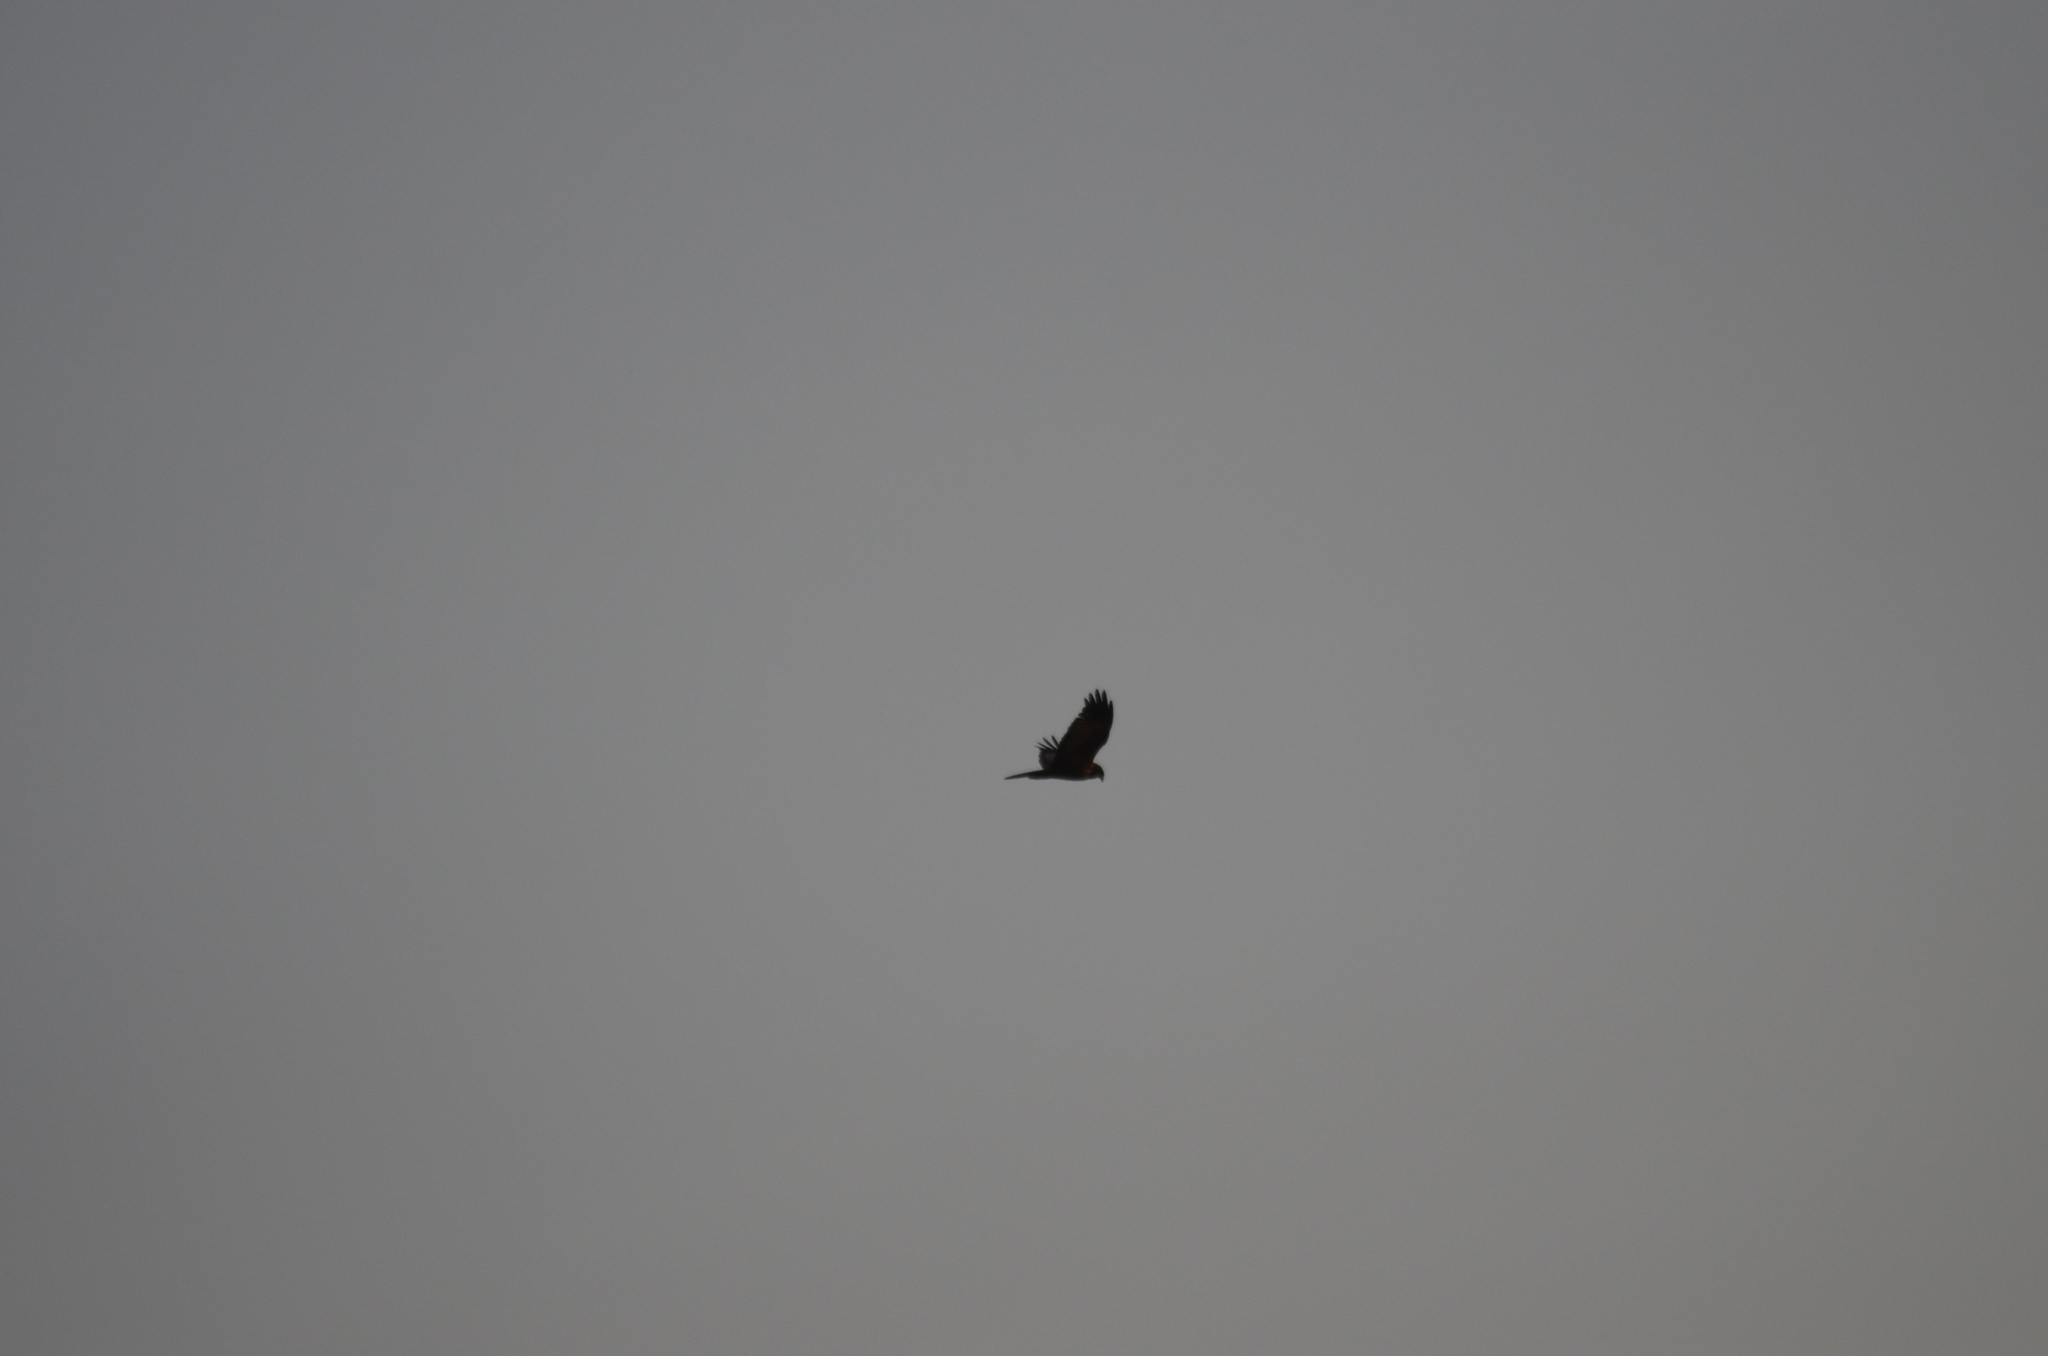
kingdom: Animalia
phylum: Chordata
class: Aves
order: Accipitriformes
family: Accipitridae
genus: Circus
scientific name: Circus aeruginosus
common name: Western marsh harrier
